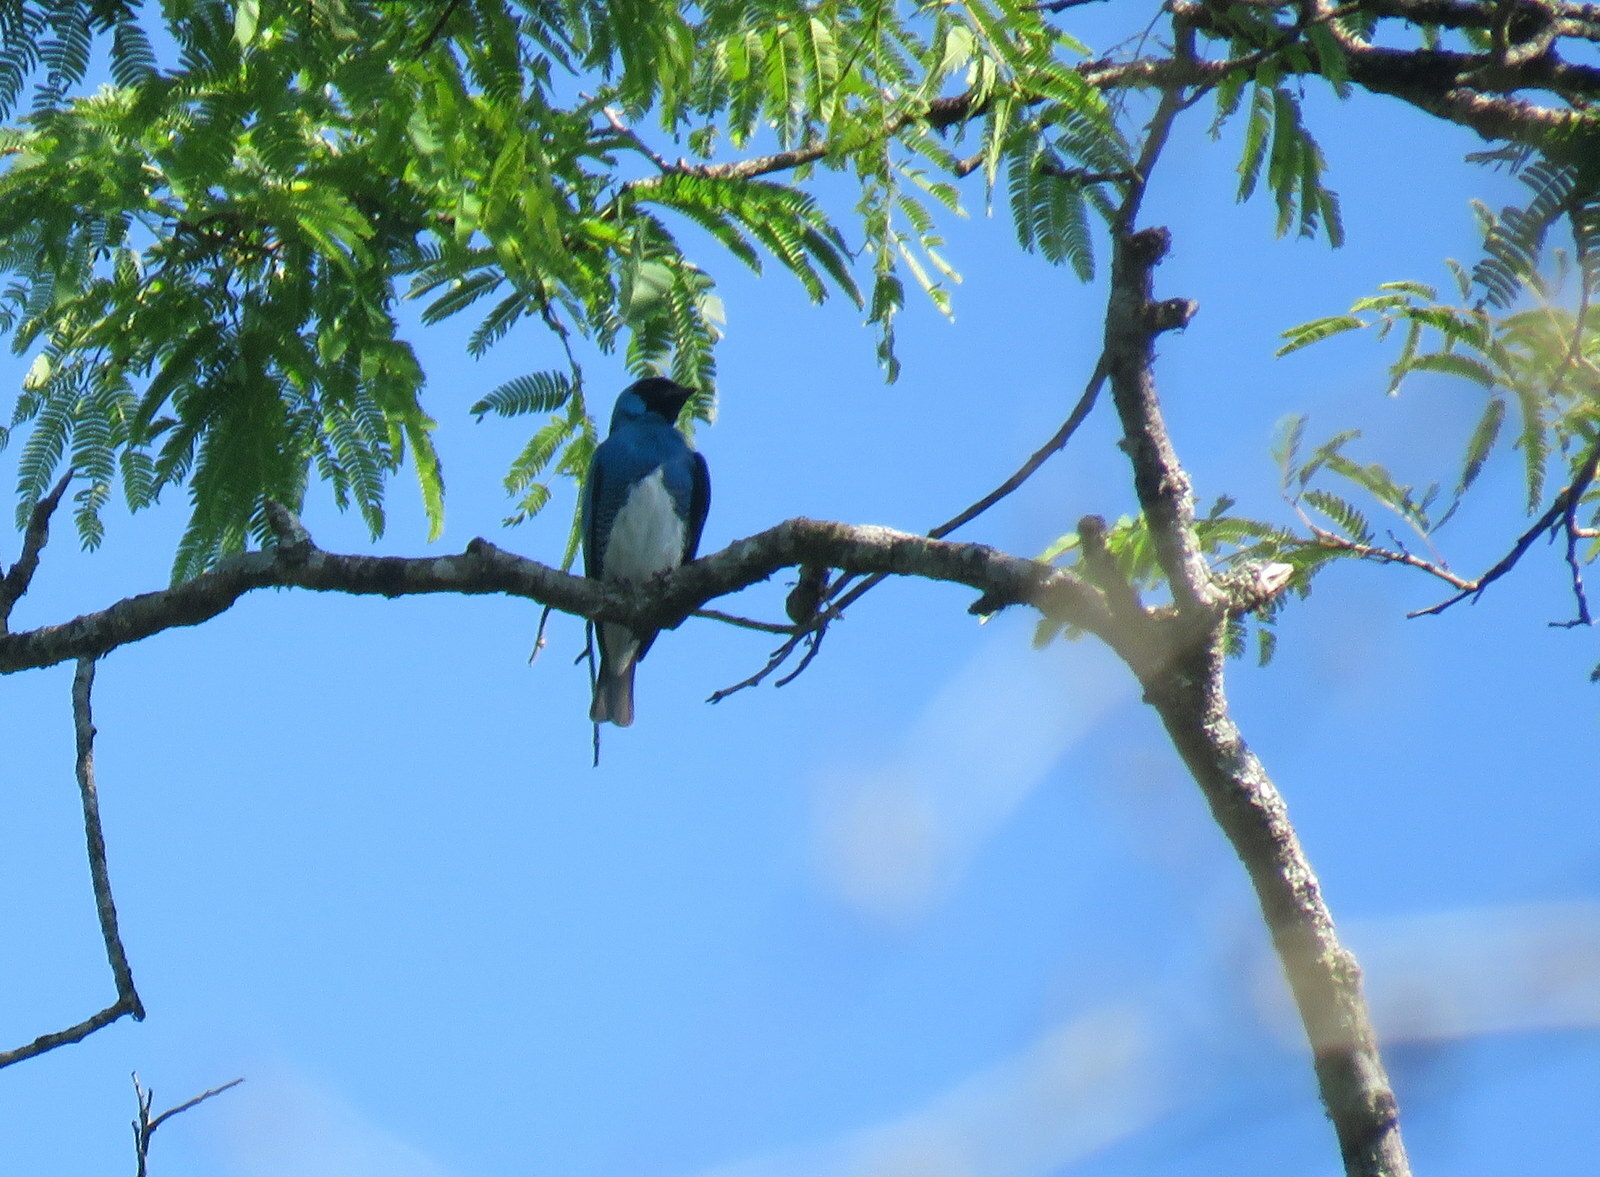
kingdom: Animalia
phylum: Chordata
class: Aves
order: Passeriformes
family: Thraupidae
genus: Tersina
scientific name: Tersina viridis
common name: Swallow tanager
